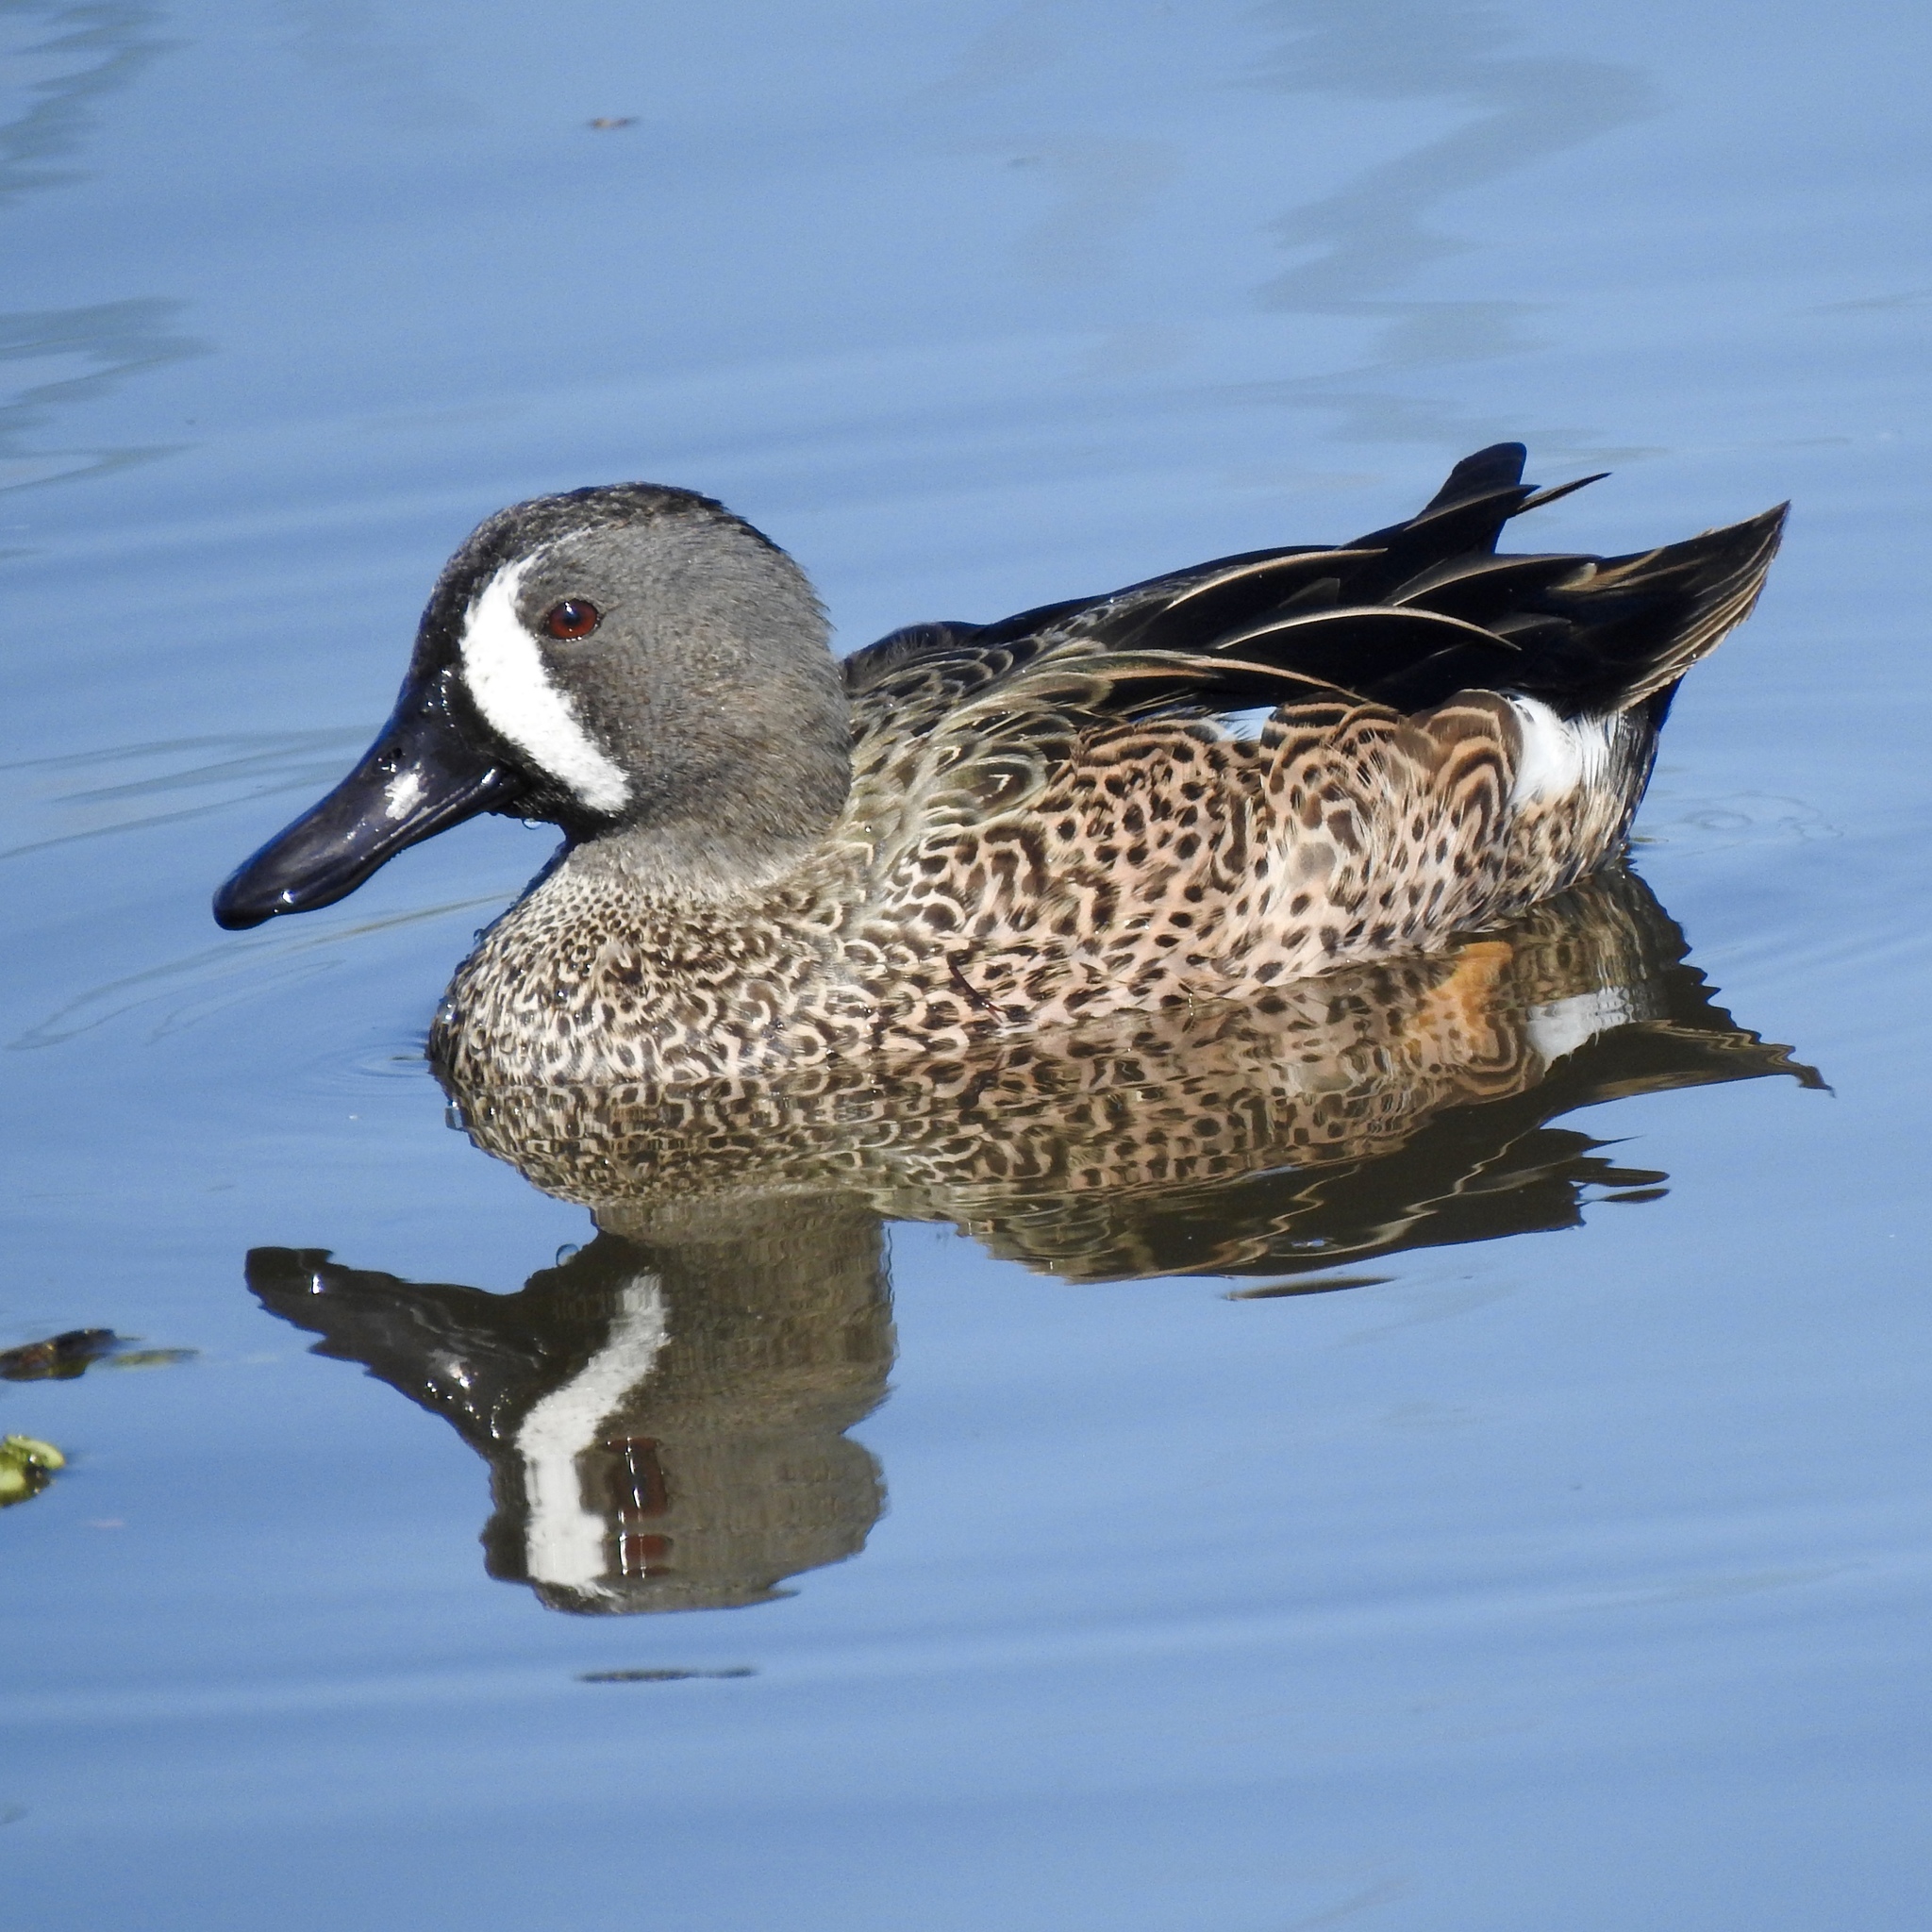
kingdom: Animalia
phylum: Chordata
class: Aves
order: Anseriformes
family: Anatidae
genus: Spatula
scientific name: Spatula discors
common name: Blue-winged teal
